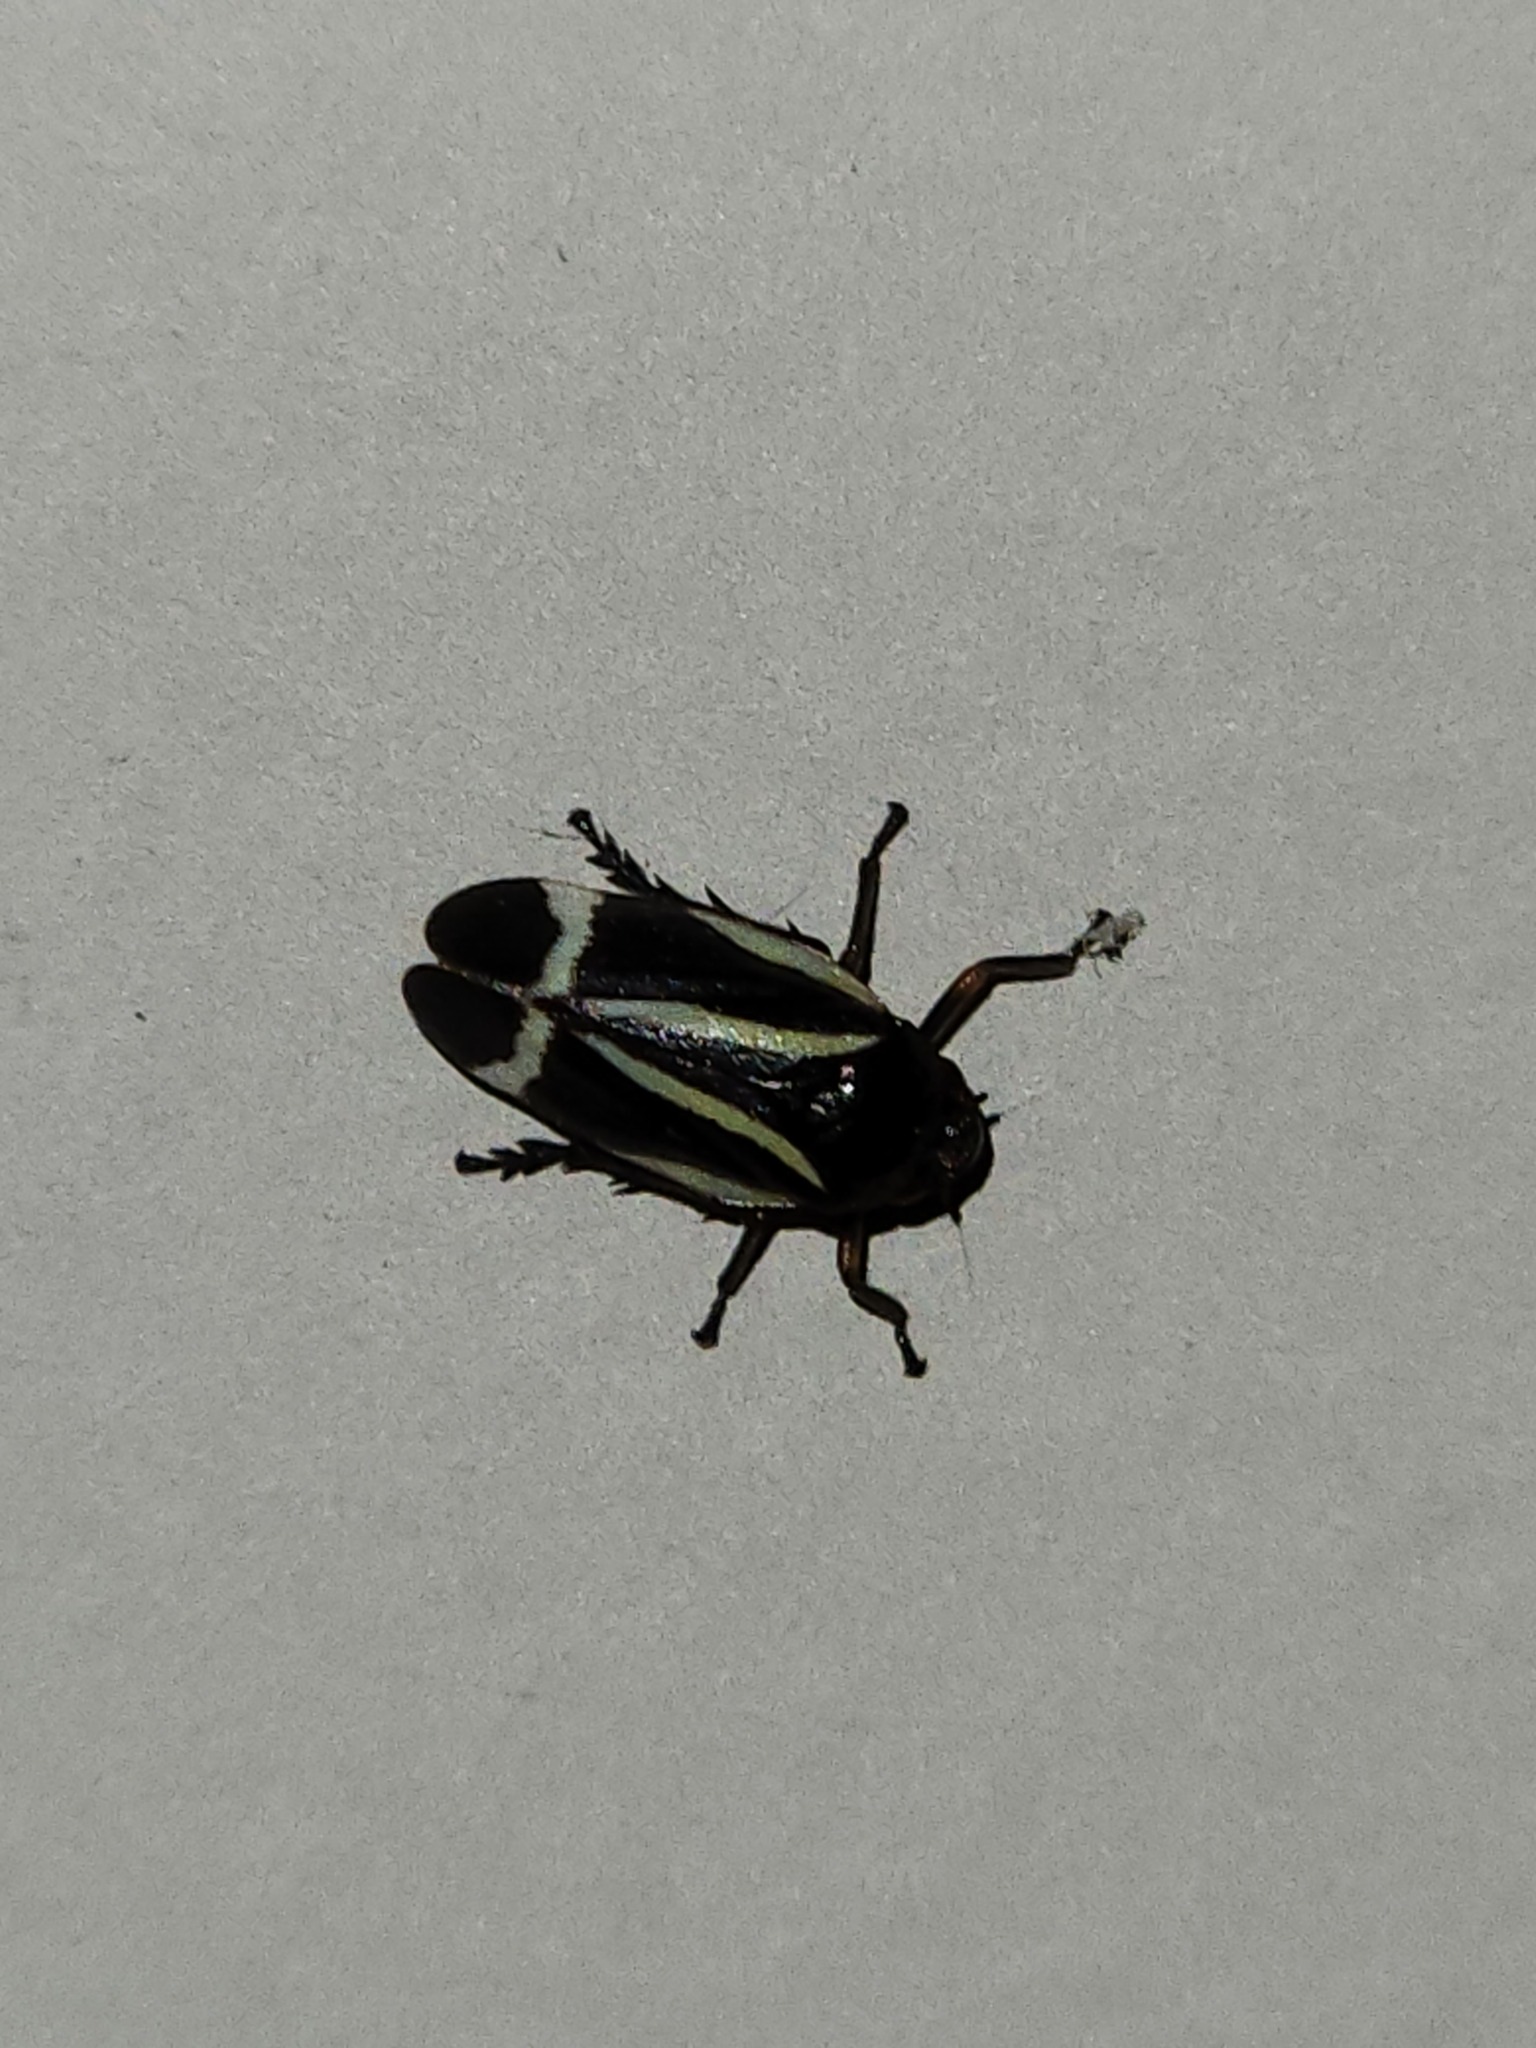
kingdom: Animalia
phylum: Arthropoda
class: Insecta
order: Hemiptera
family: Cercopidae
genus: Notozulia
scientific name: Notozulia entreriana
